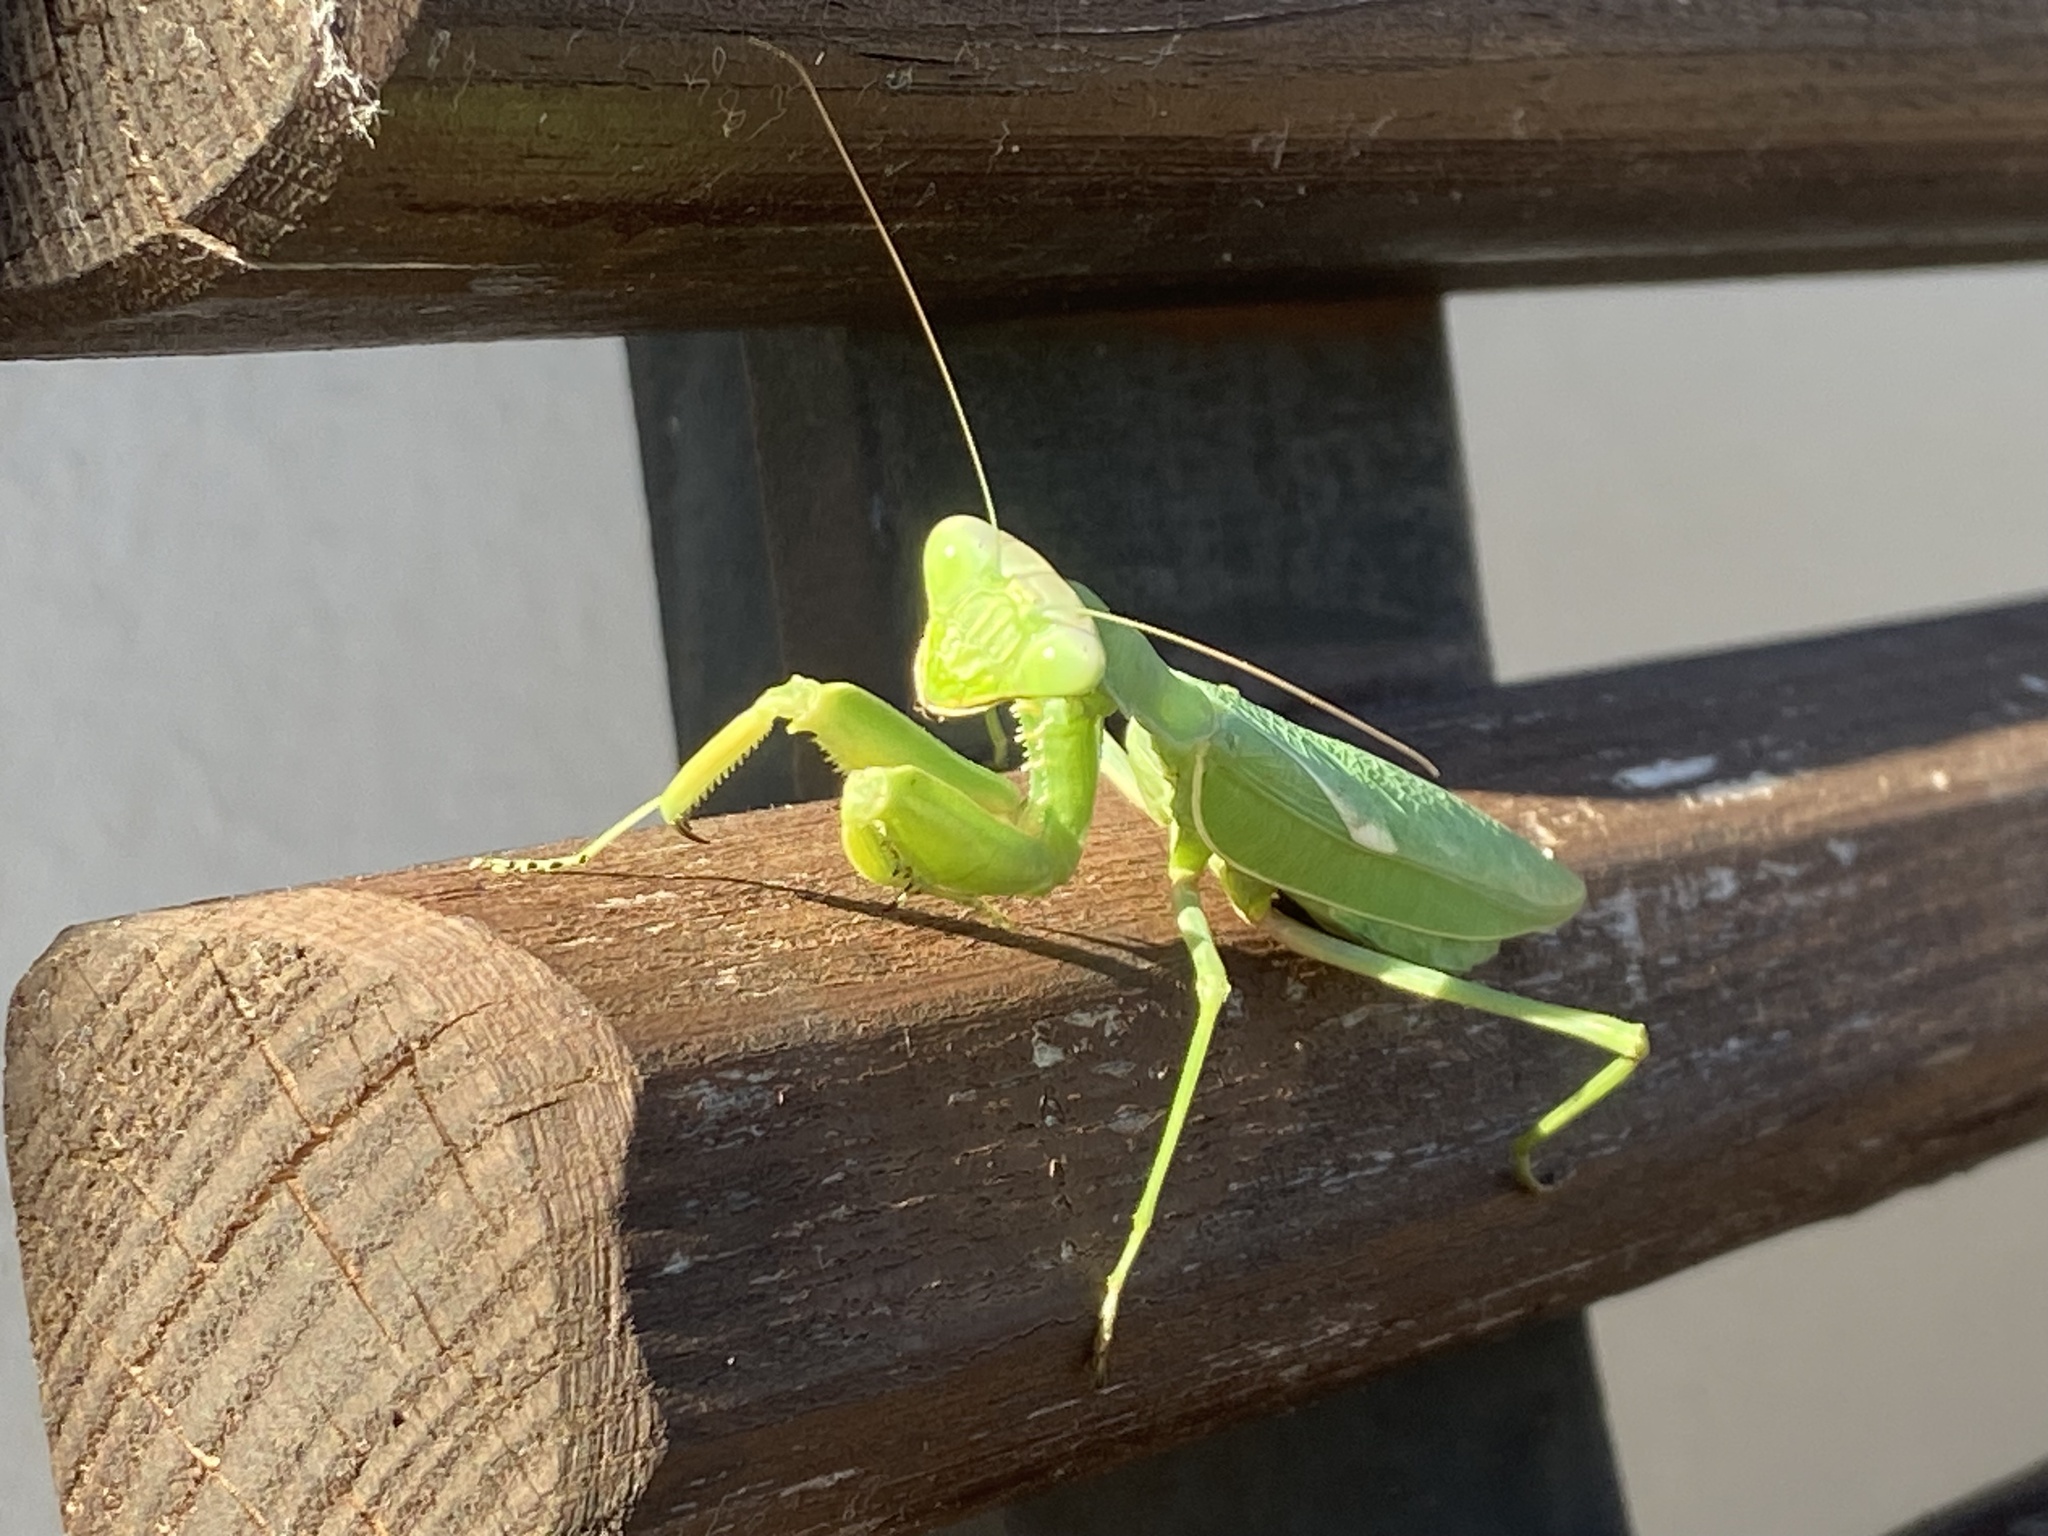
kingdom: Animalia
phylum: Arthropoda
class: Insecta
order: Mantodea
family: Mantidae
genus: Sphodromantis
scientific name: Sphodromantis viridis
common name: Giant african mantis
